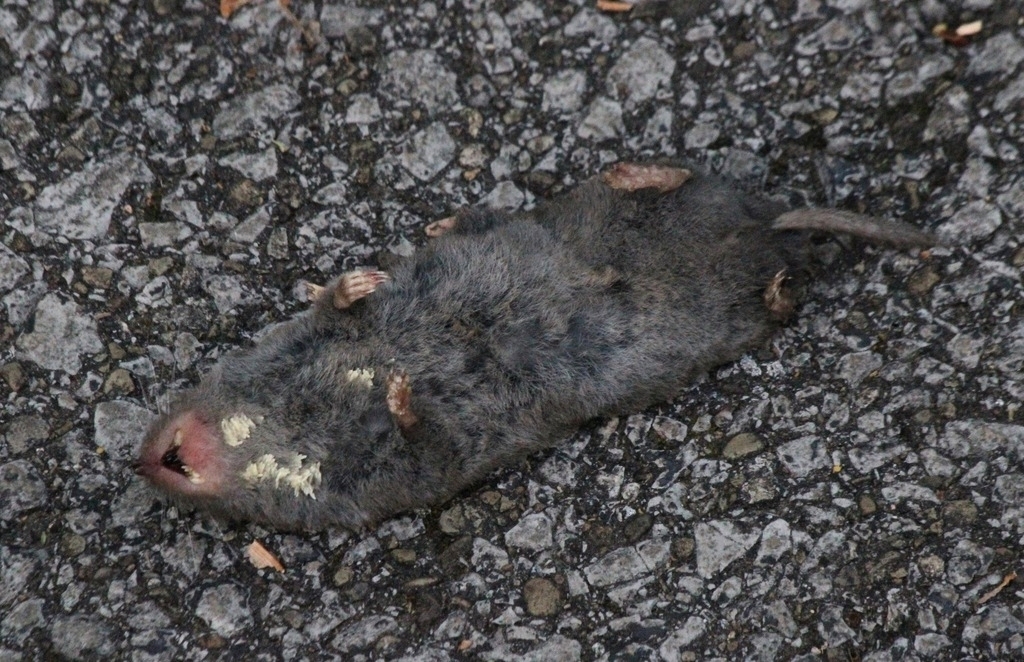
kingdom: Animalia
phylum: Chordata
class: Mammalia
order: Soricomorpha
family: Soricidae
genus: Blarina
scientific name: Blarina brevicauda
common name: Northern short-tailed shrew
